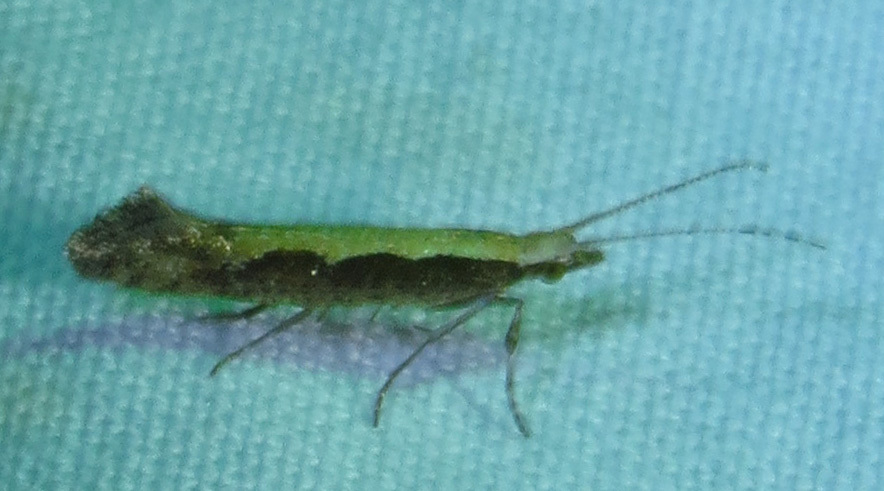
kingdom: Animalia
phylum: Arthropoda
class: Insecta
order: Lepidoptera
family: Plutellidae
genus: Plutella
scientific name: Plutella xylostella
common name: Diamond-back moth
